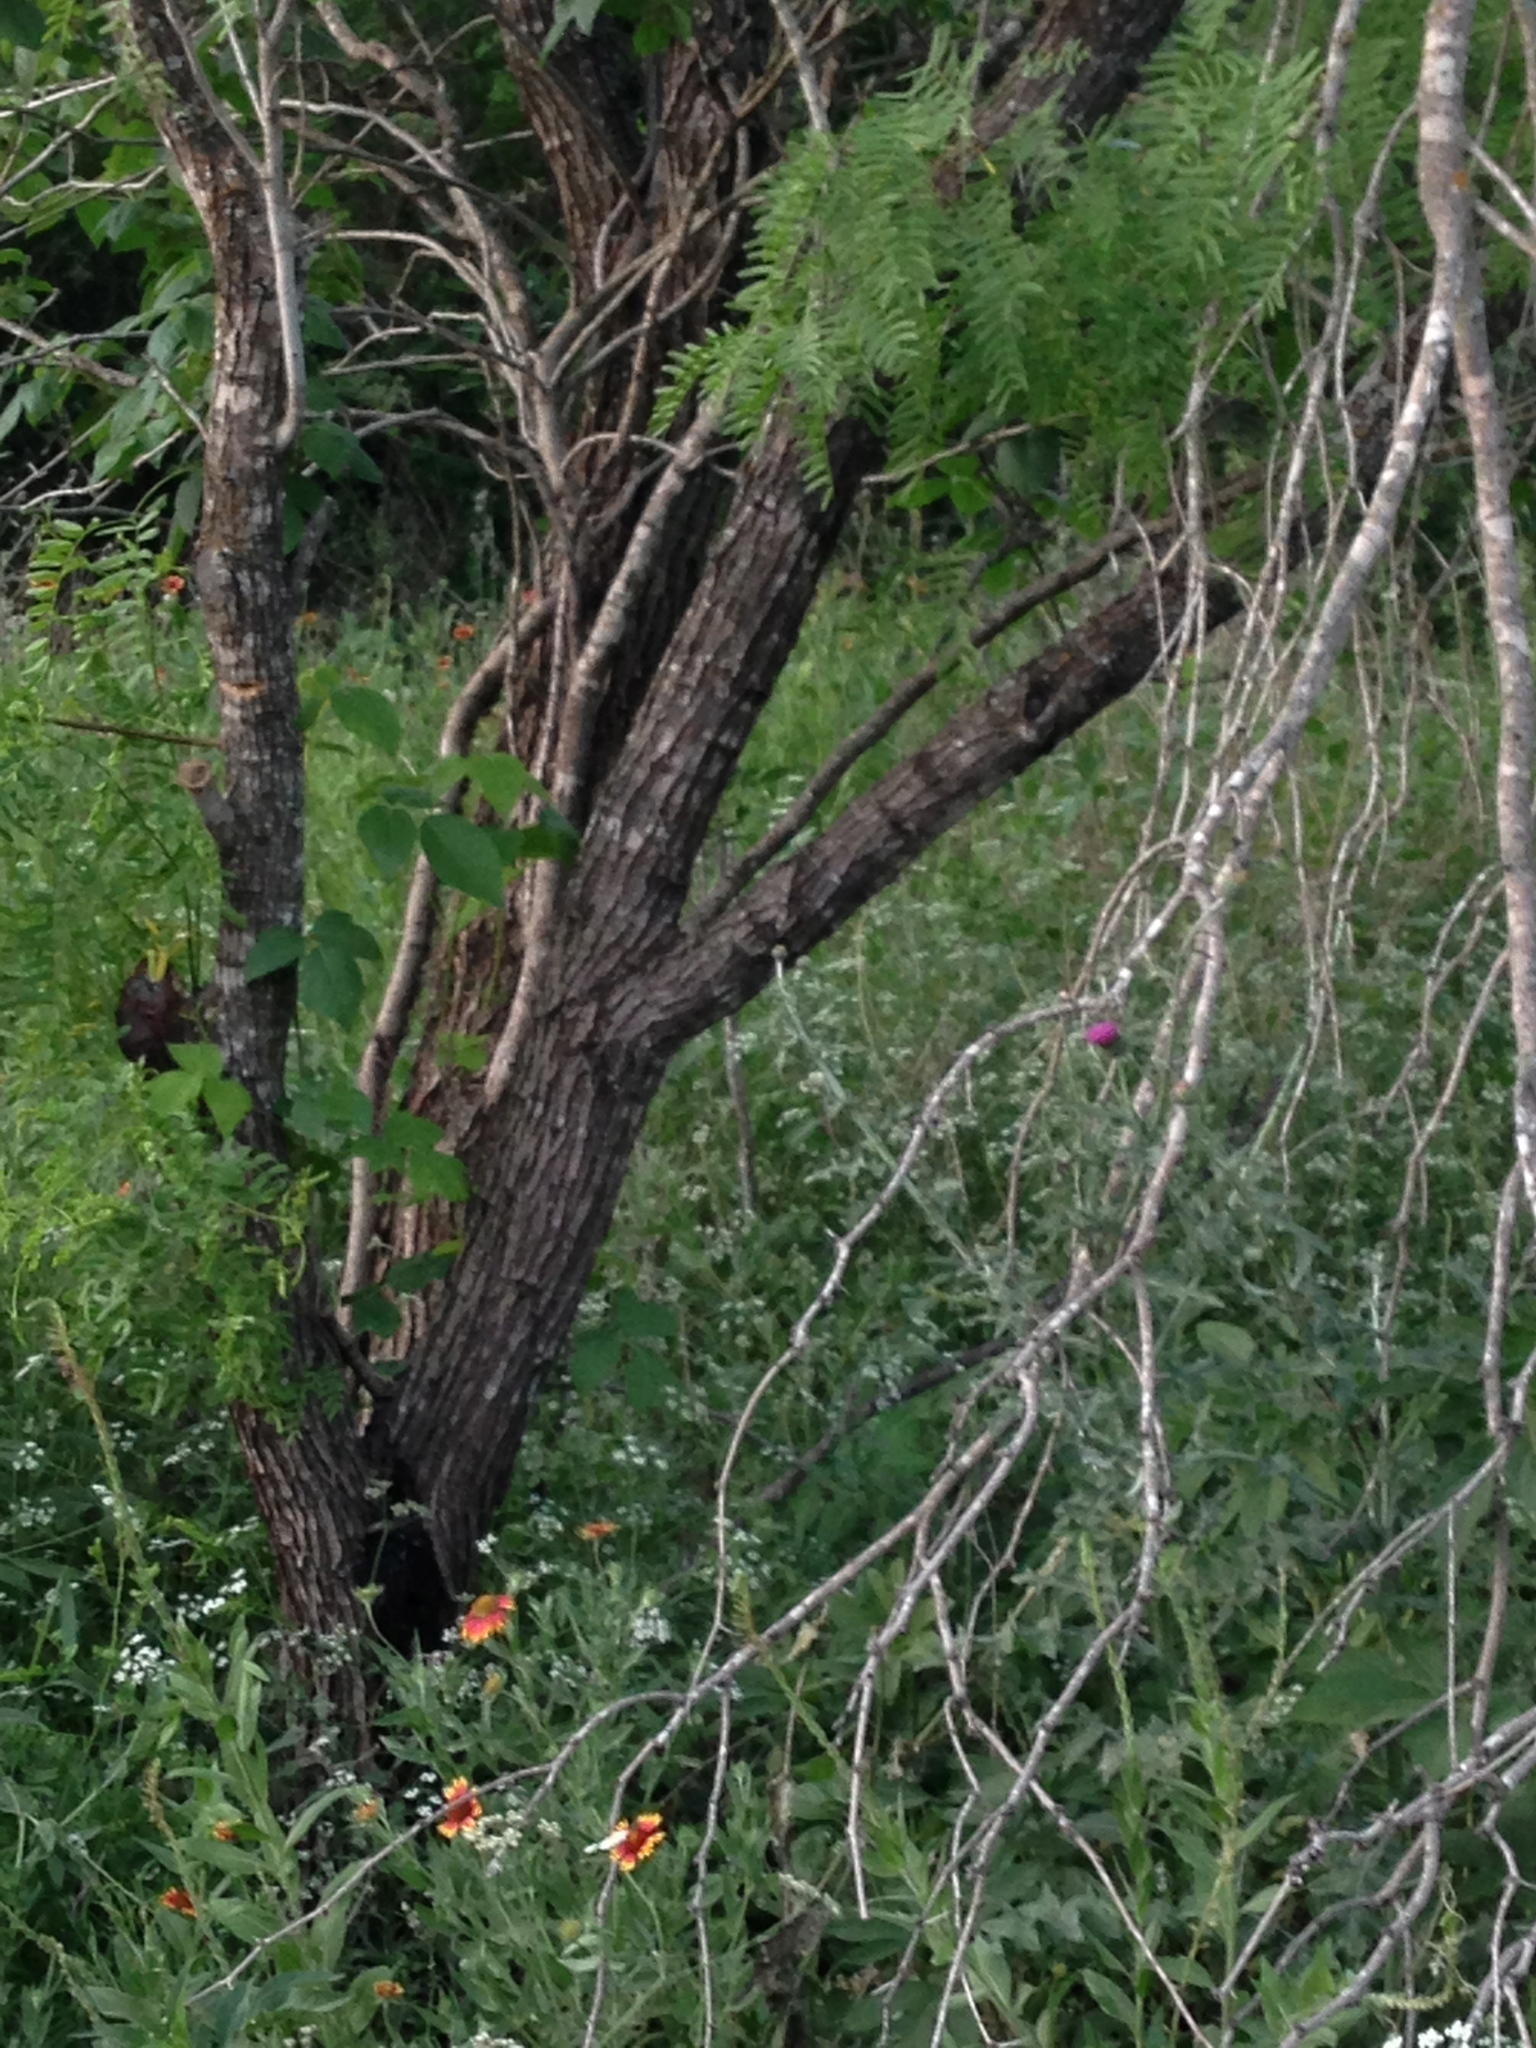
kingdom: Plantae
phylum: Tracheophyta
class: Magnoliopsida
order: Fabales
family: Fabaceae
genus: Prosopis
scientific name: Prosopis glandulosa
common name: Honey mesquite
